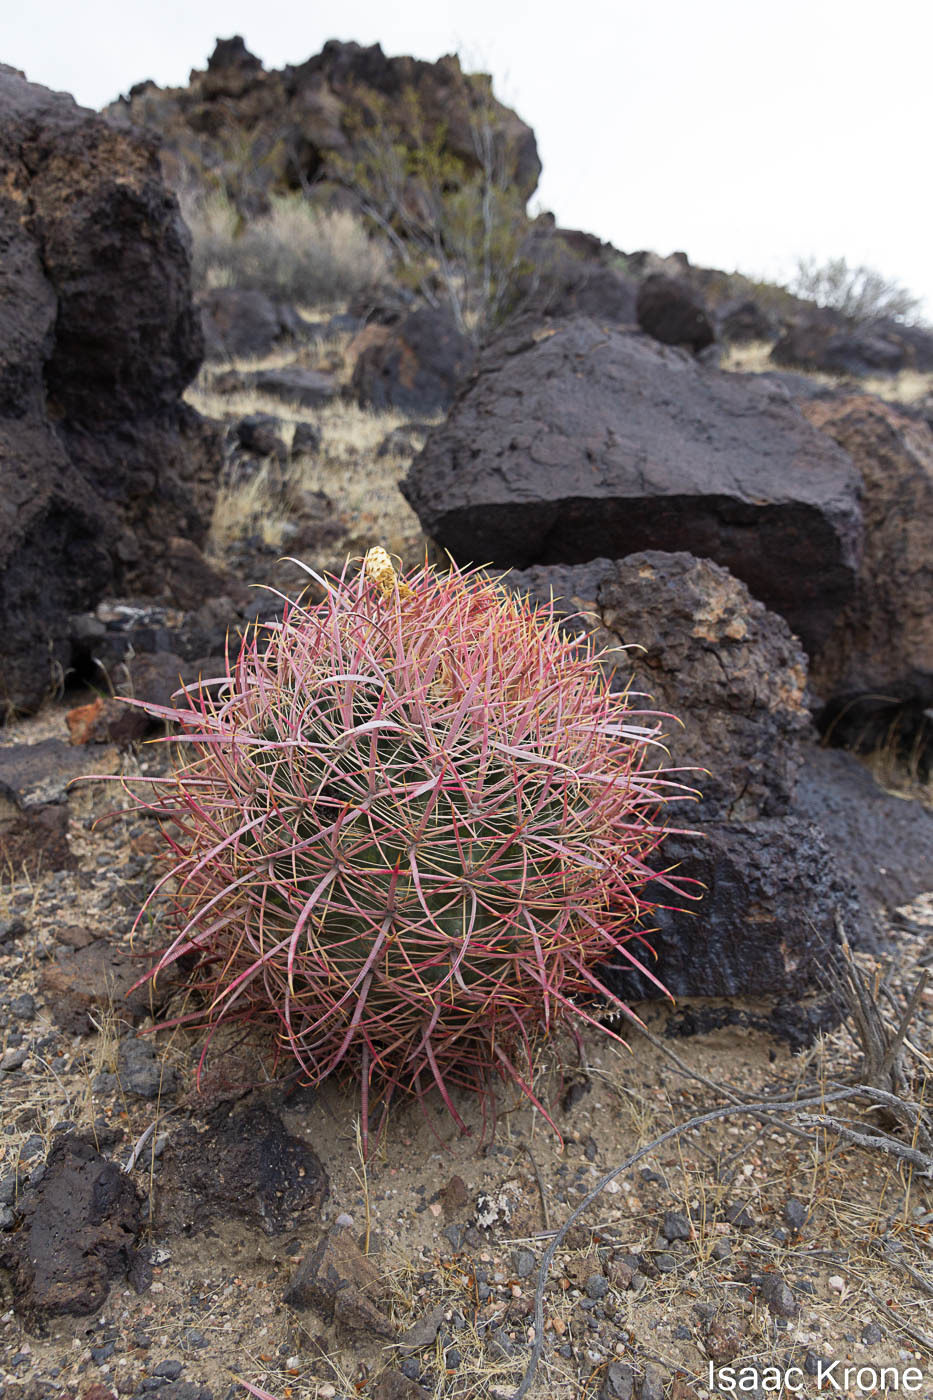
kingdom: Plantae
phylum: Tracheophyta
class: Magnoliopsida
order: Caryophyllales
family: Cactaceae
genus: Ferocactus
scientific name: Ferocactus cylindraceus
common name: California barrel cactus
